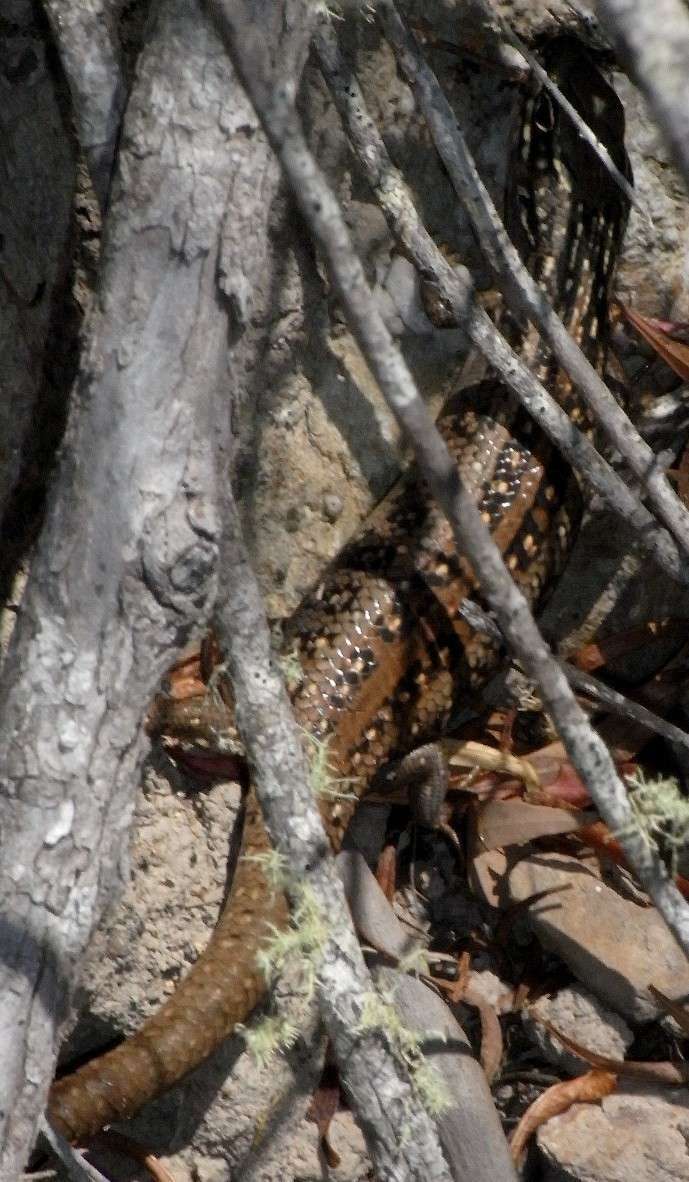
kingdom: Animalia
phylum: Chordata
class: Squamata
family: Scincidae
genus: Liopholis
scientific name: Liopholis whitii
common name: White's rock-skink
